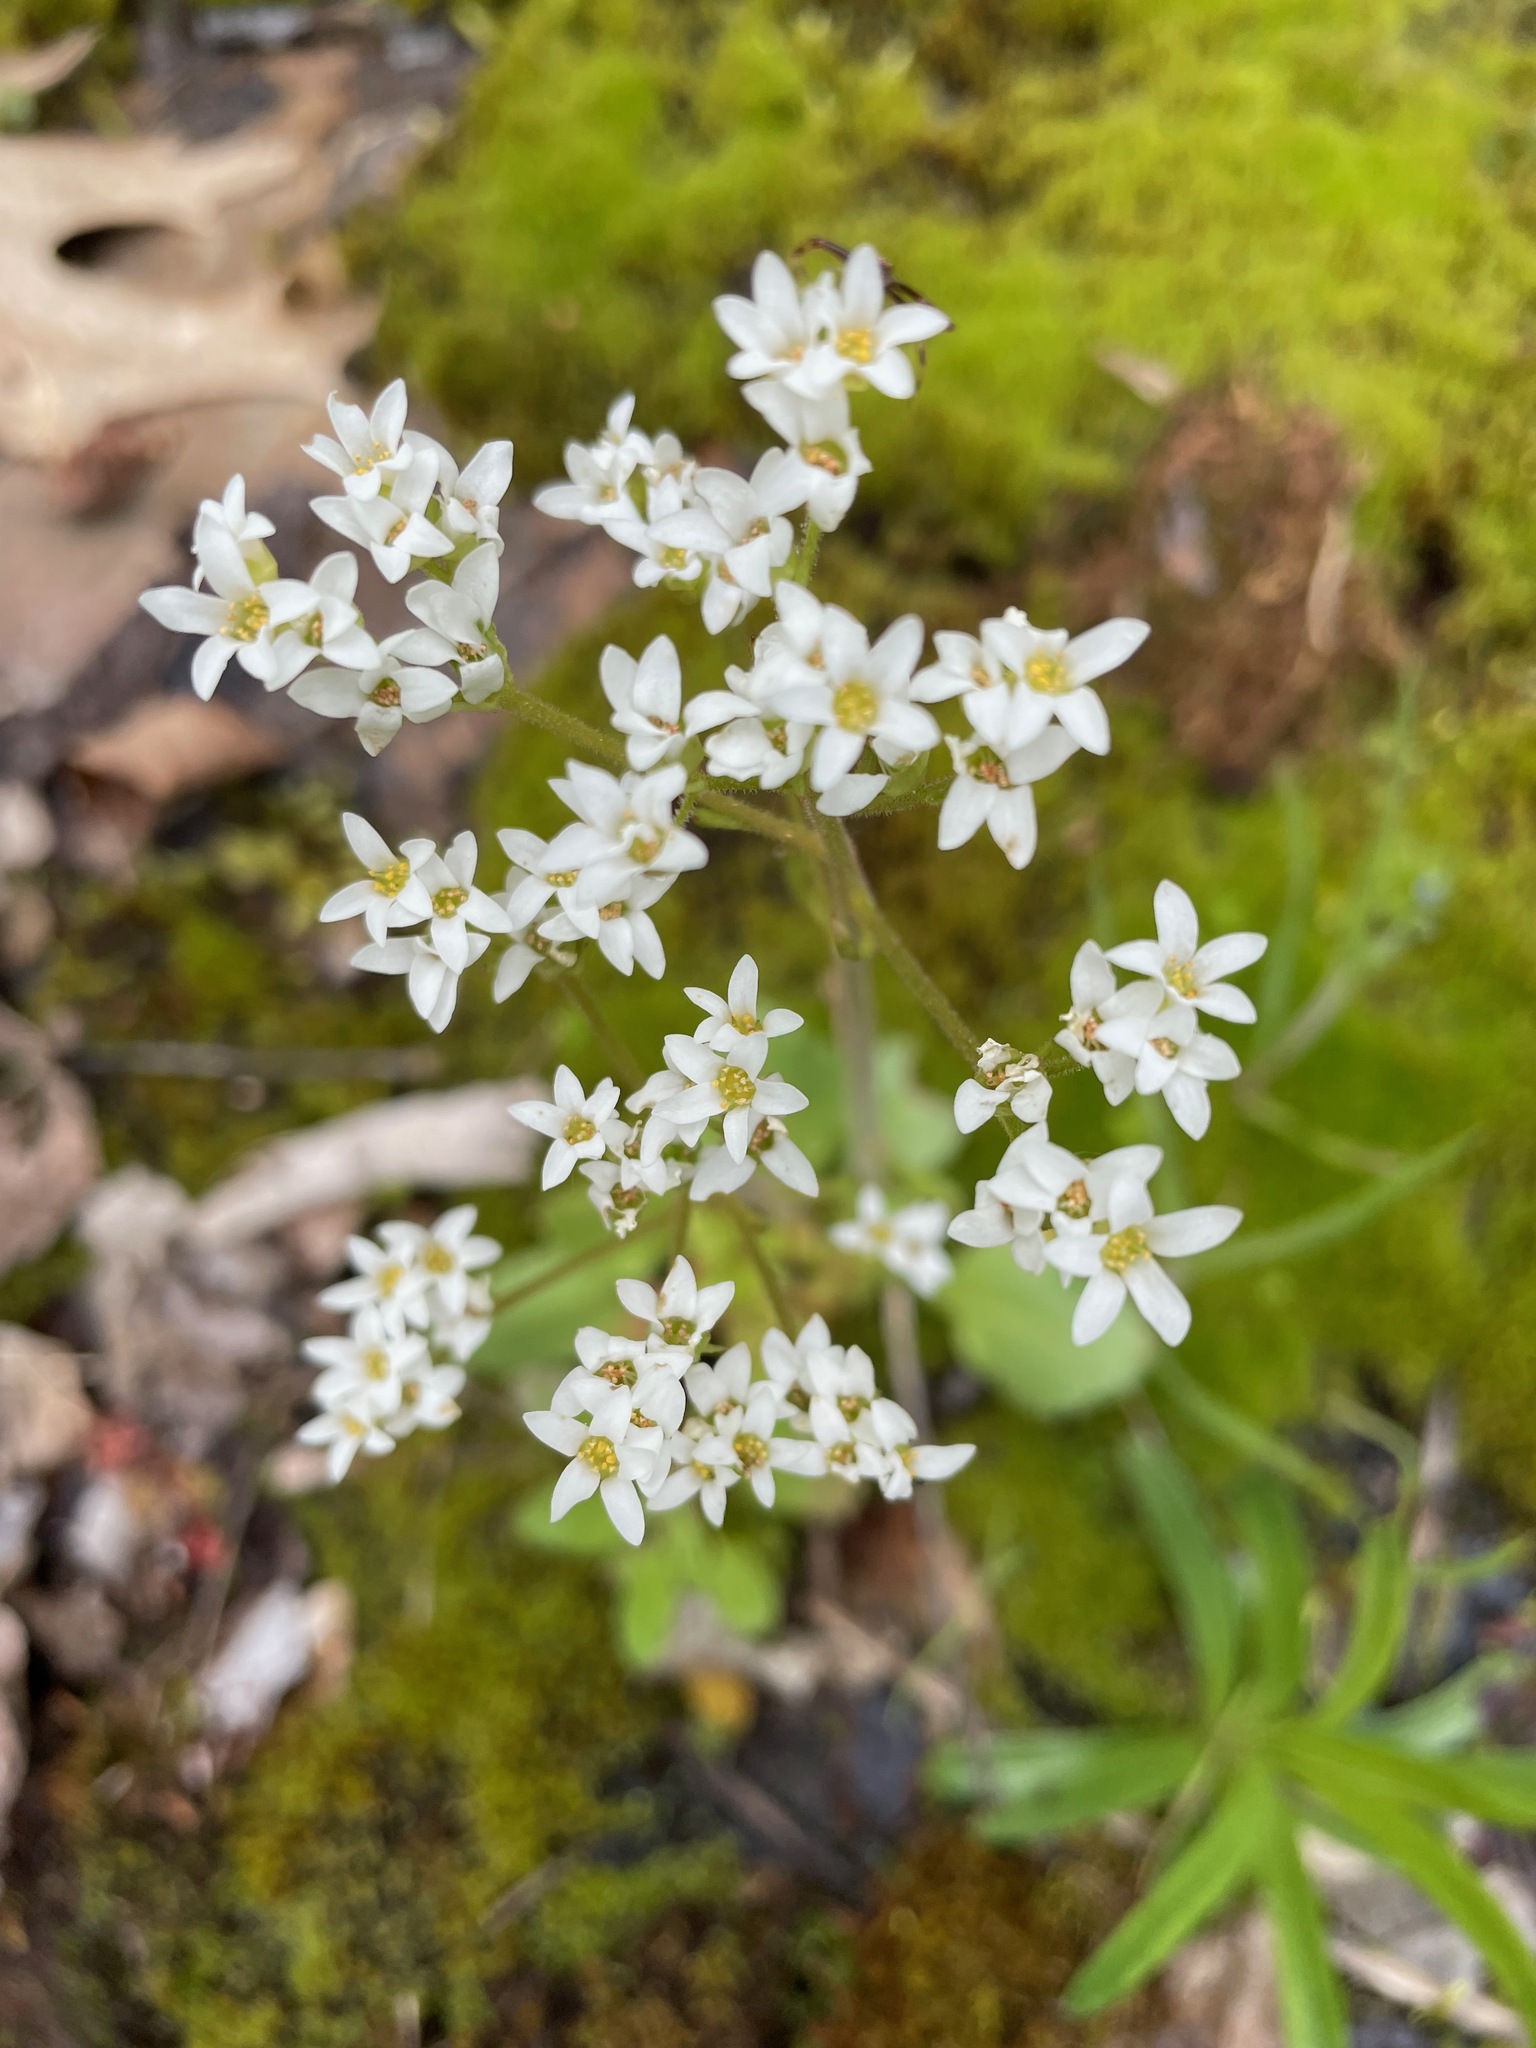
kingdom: Plantae
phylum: Tracheophyta
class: Magnoliopsida
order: Saxifragales
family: Saxifragaceae
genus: Micranthes
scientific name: Micranthes virginiensis
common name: Early saxifrage
